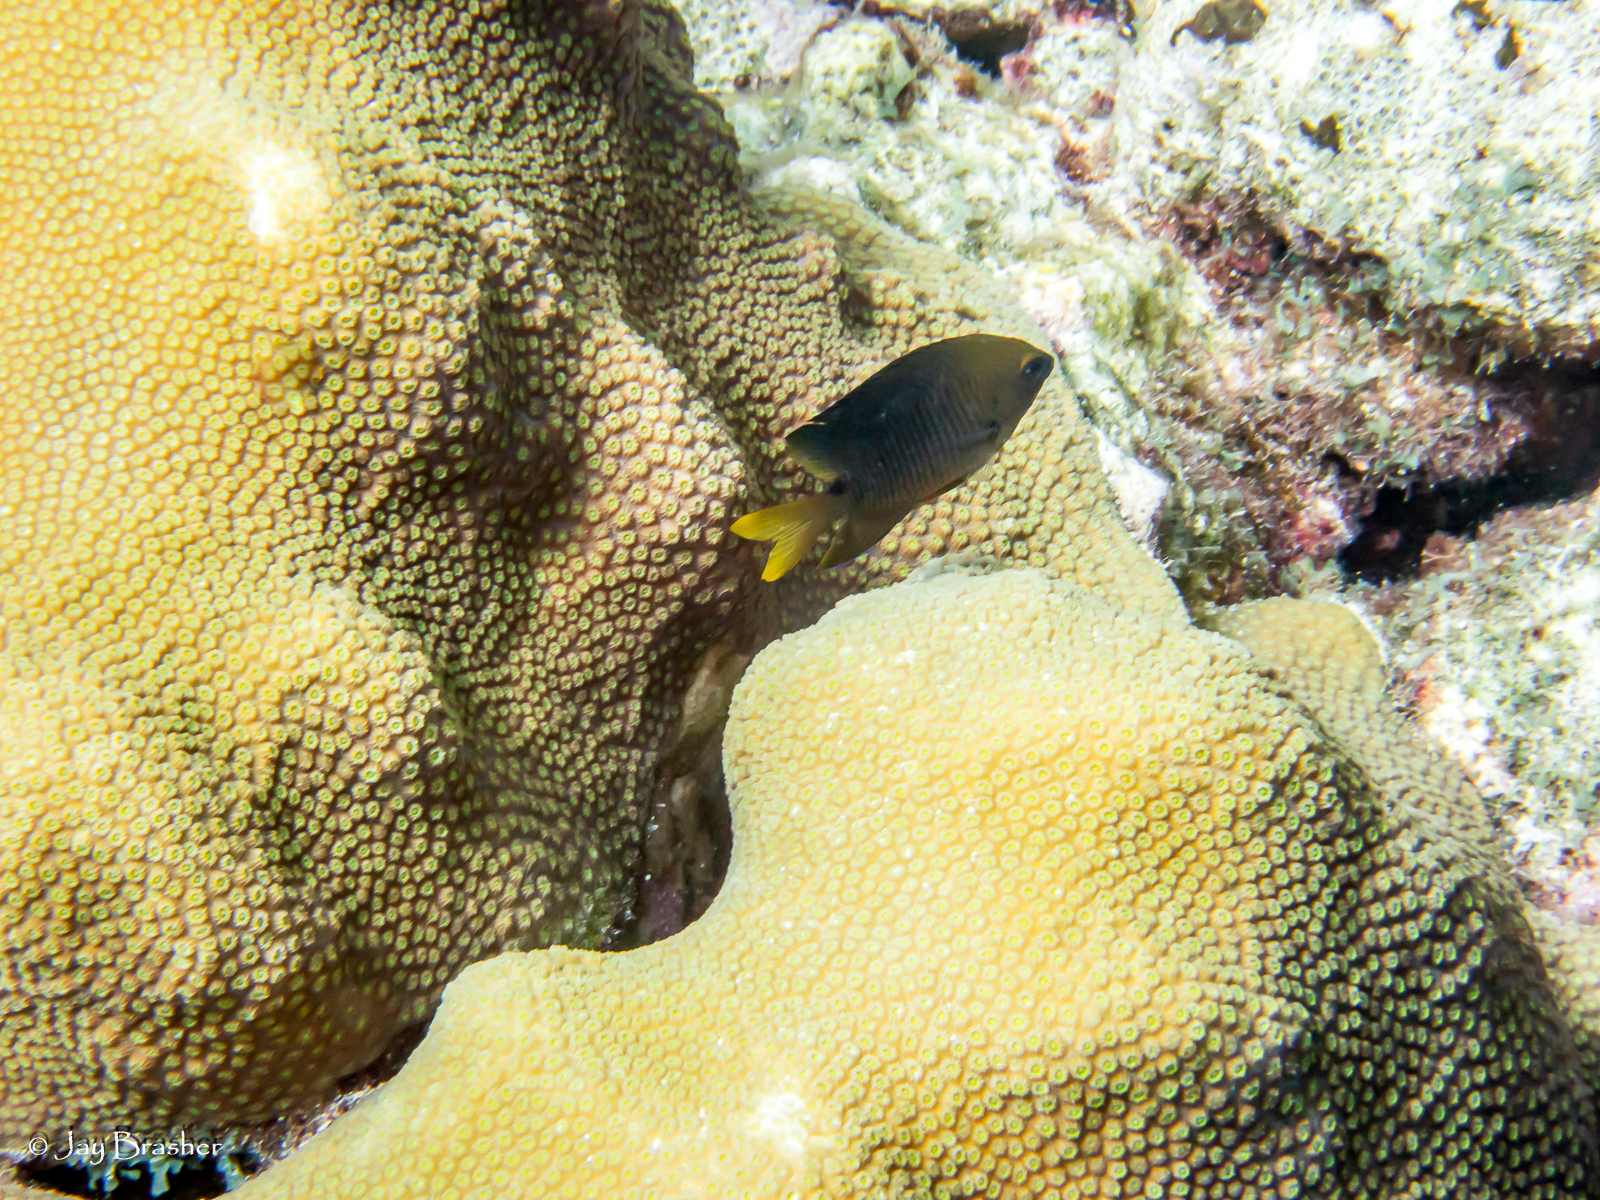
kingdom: Animalia
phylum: Chordata
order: Perciformes
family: Pomacentridae
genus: Stegastes
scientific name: Stegastes planifrons
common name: Threespot damselfish
